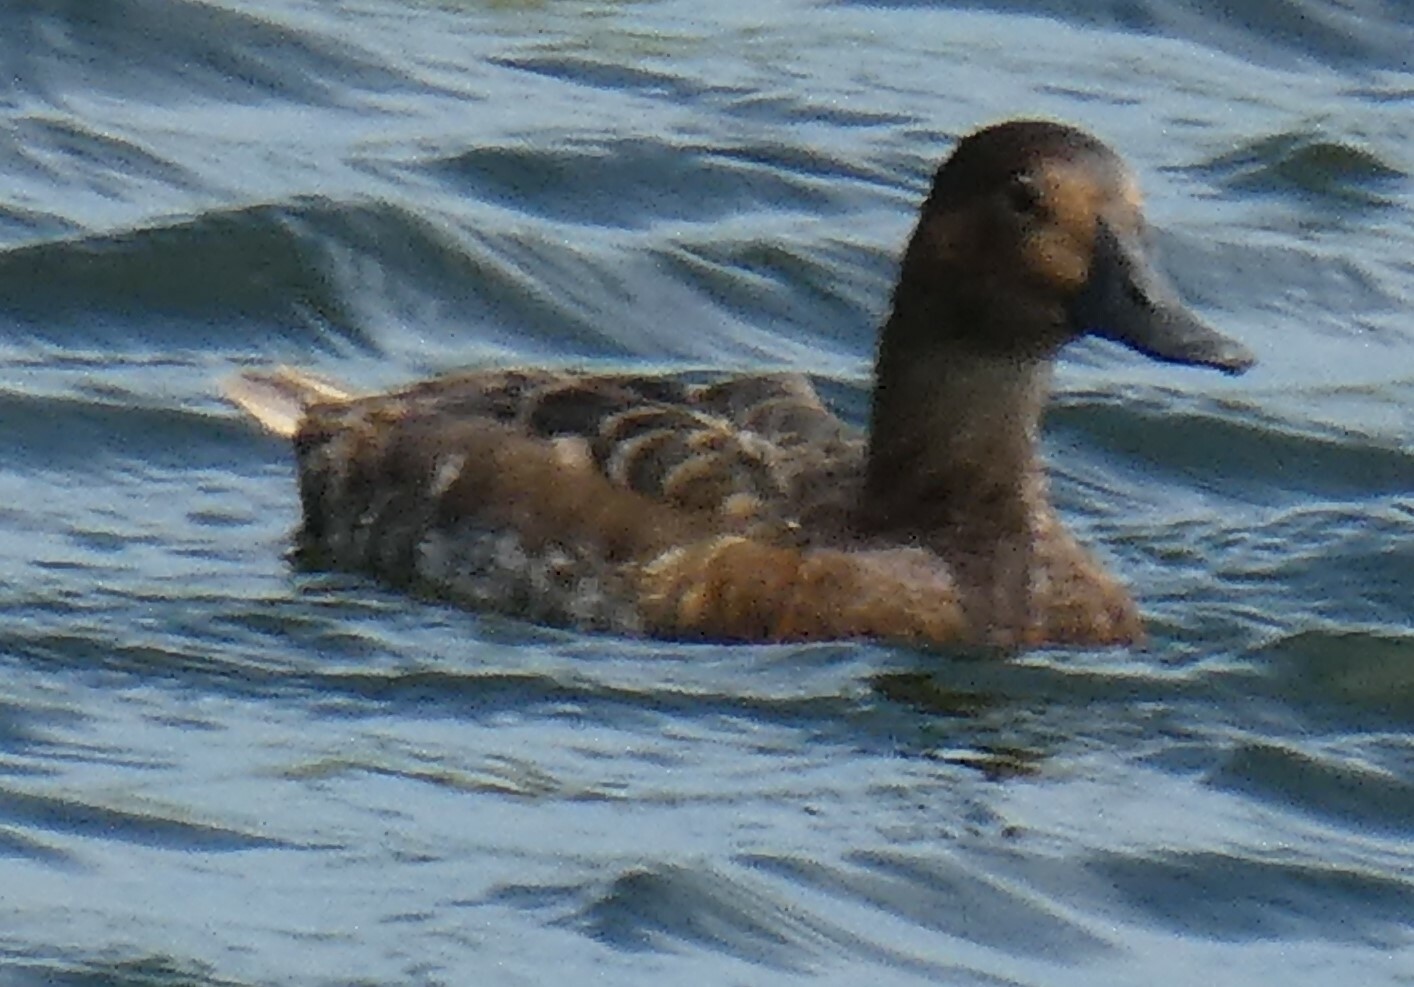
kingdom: Animalia
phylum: Chordata
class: Aves
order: Anseriformes
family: Anatidae
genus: Aythya
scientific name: Aythya ferina
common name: Common pochard
